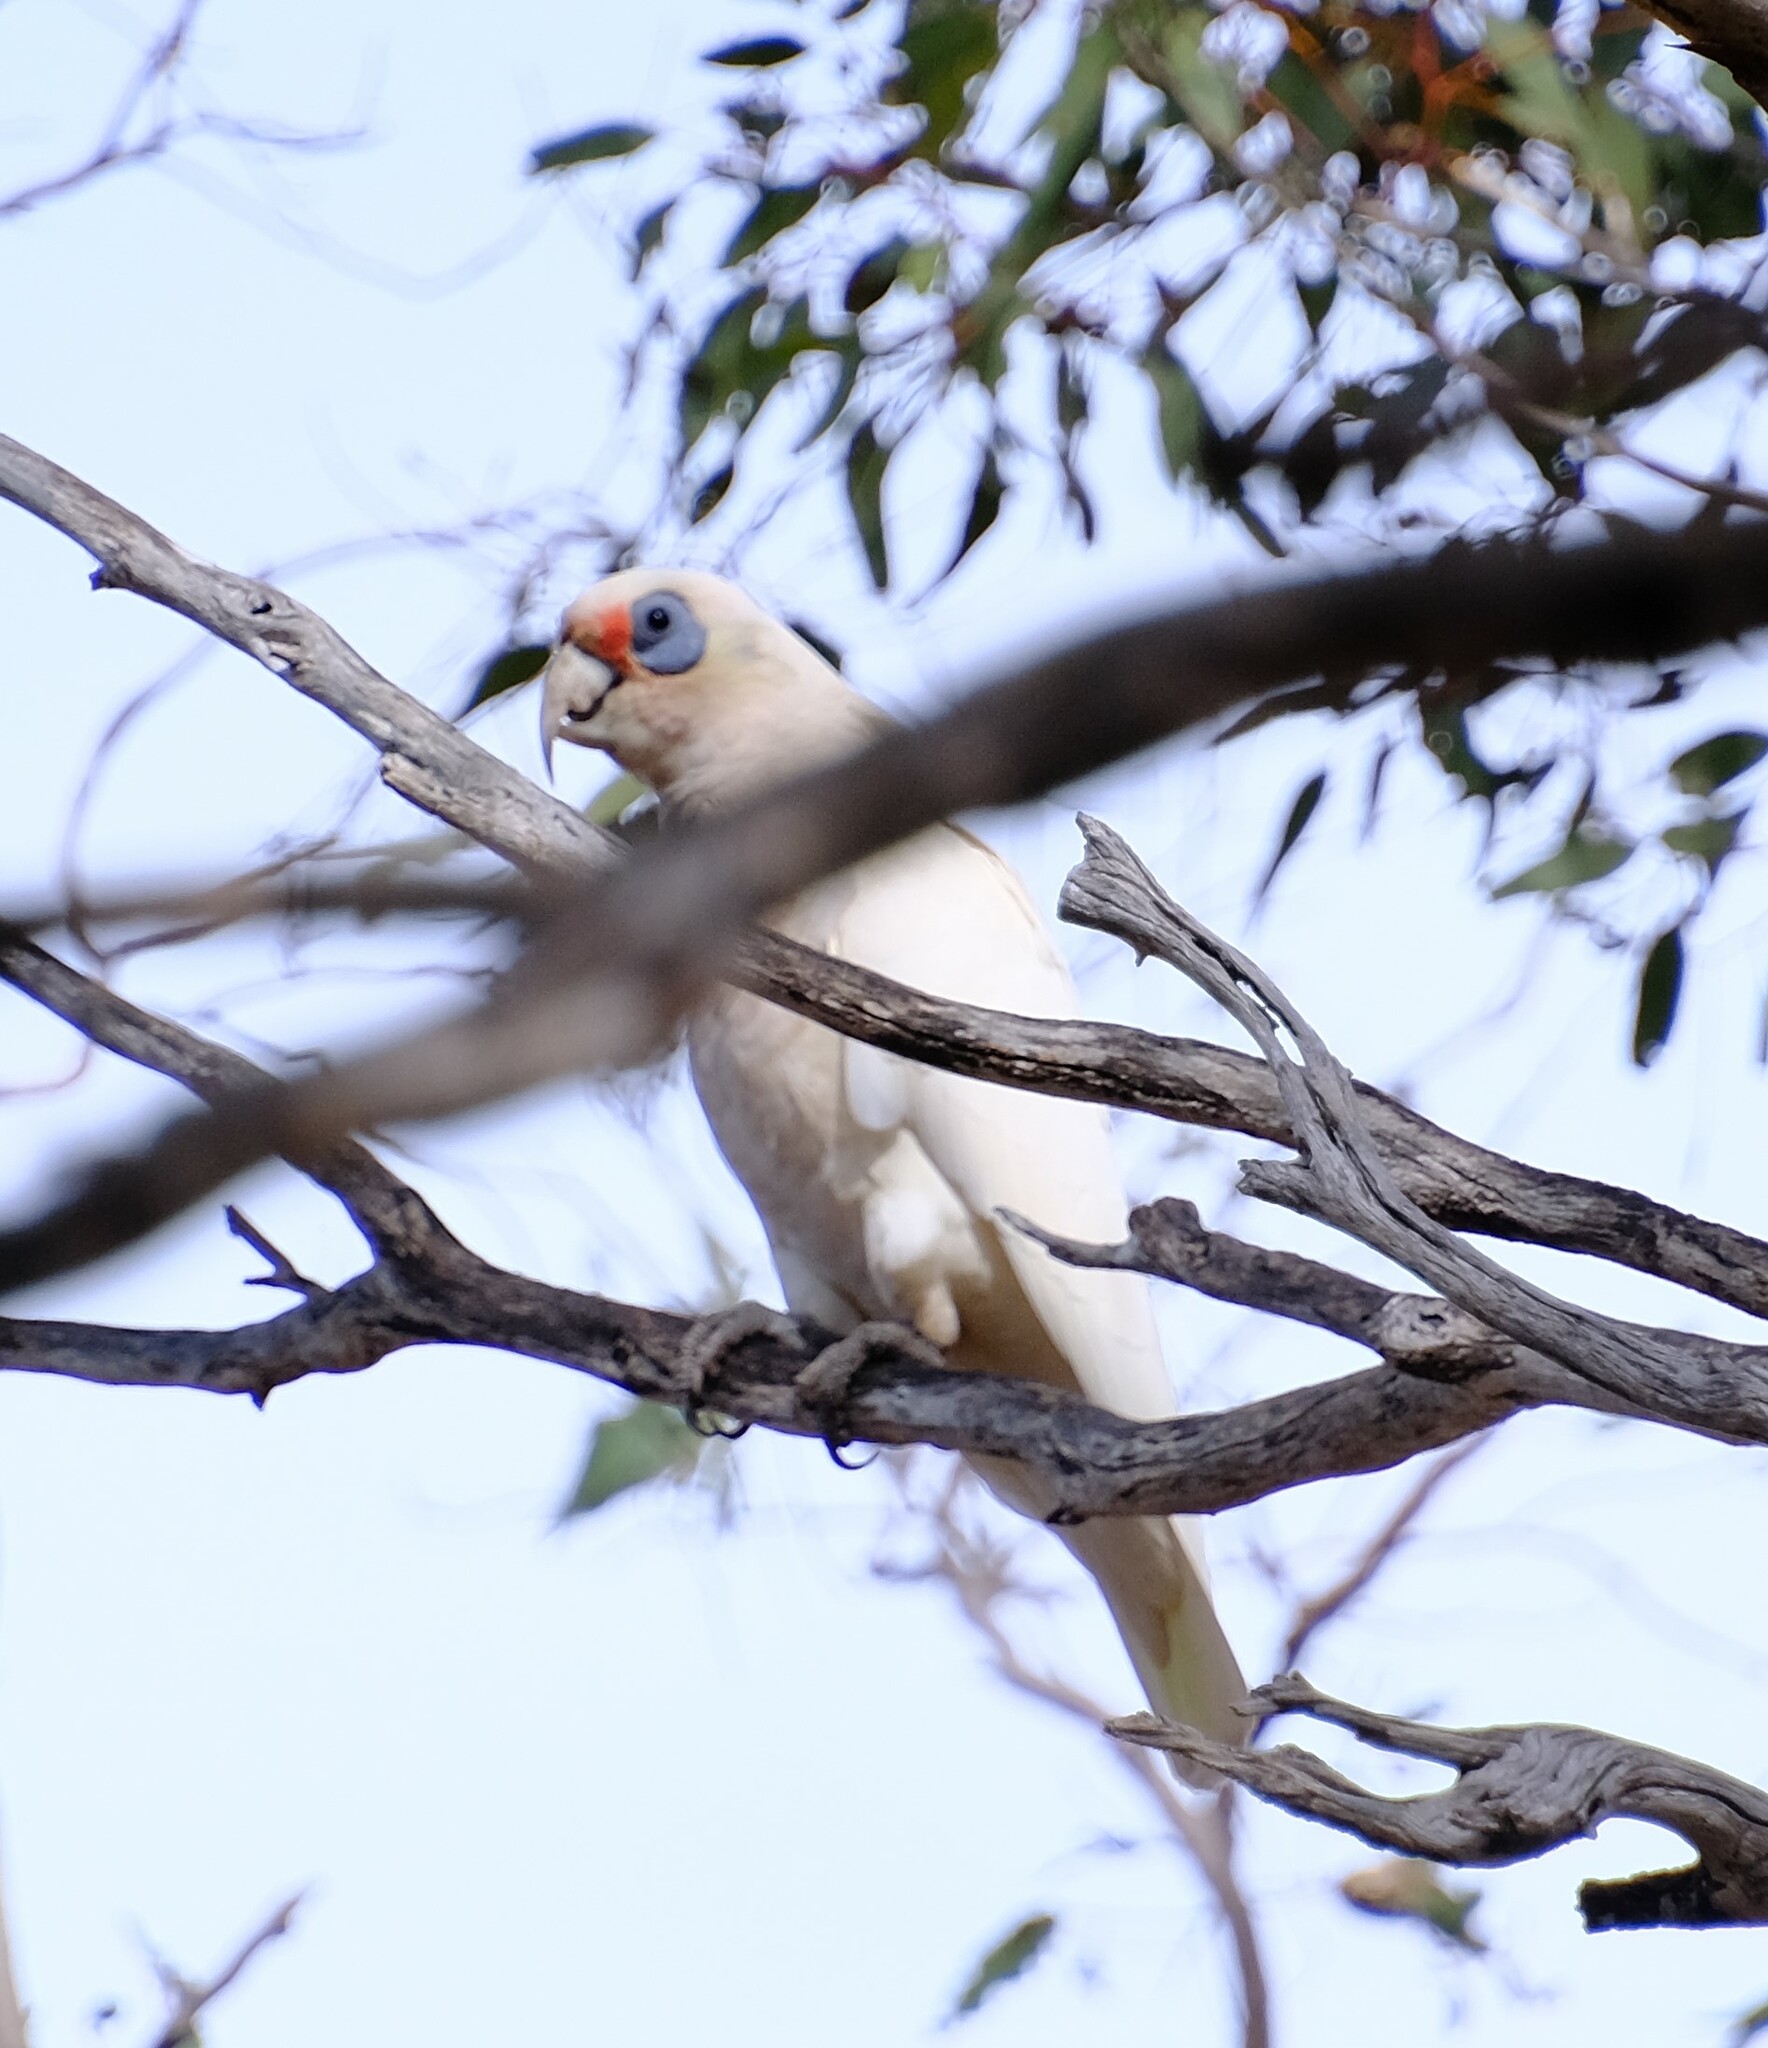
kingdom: Animalia
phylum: Chordata
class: Aves
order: Psittaciformes
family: Psittacidae
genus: Cacatua
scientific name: Cacatua pastinator
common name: Western corella
